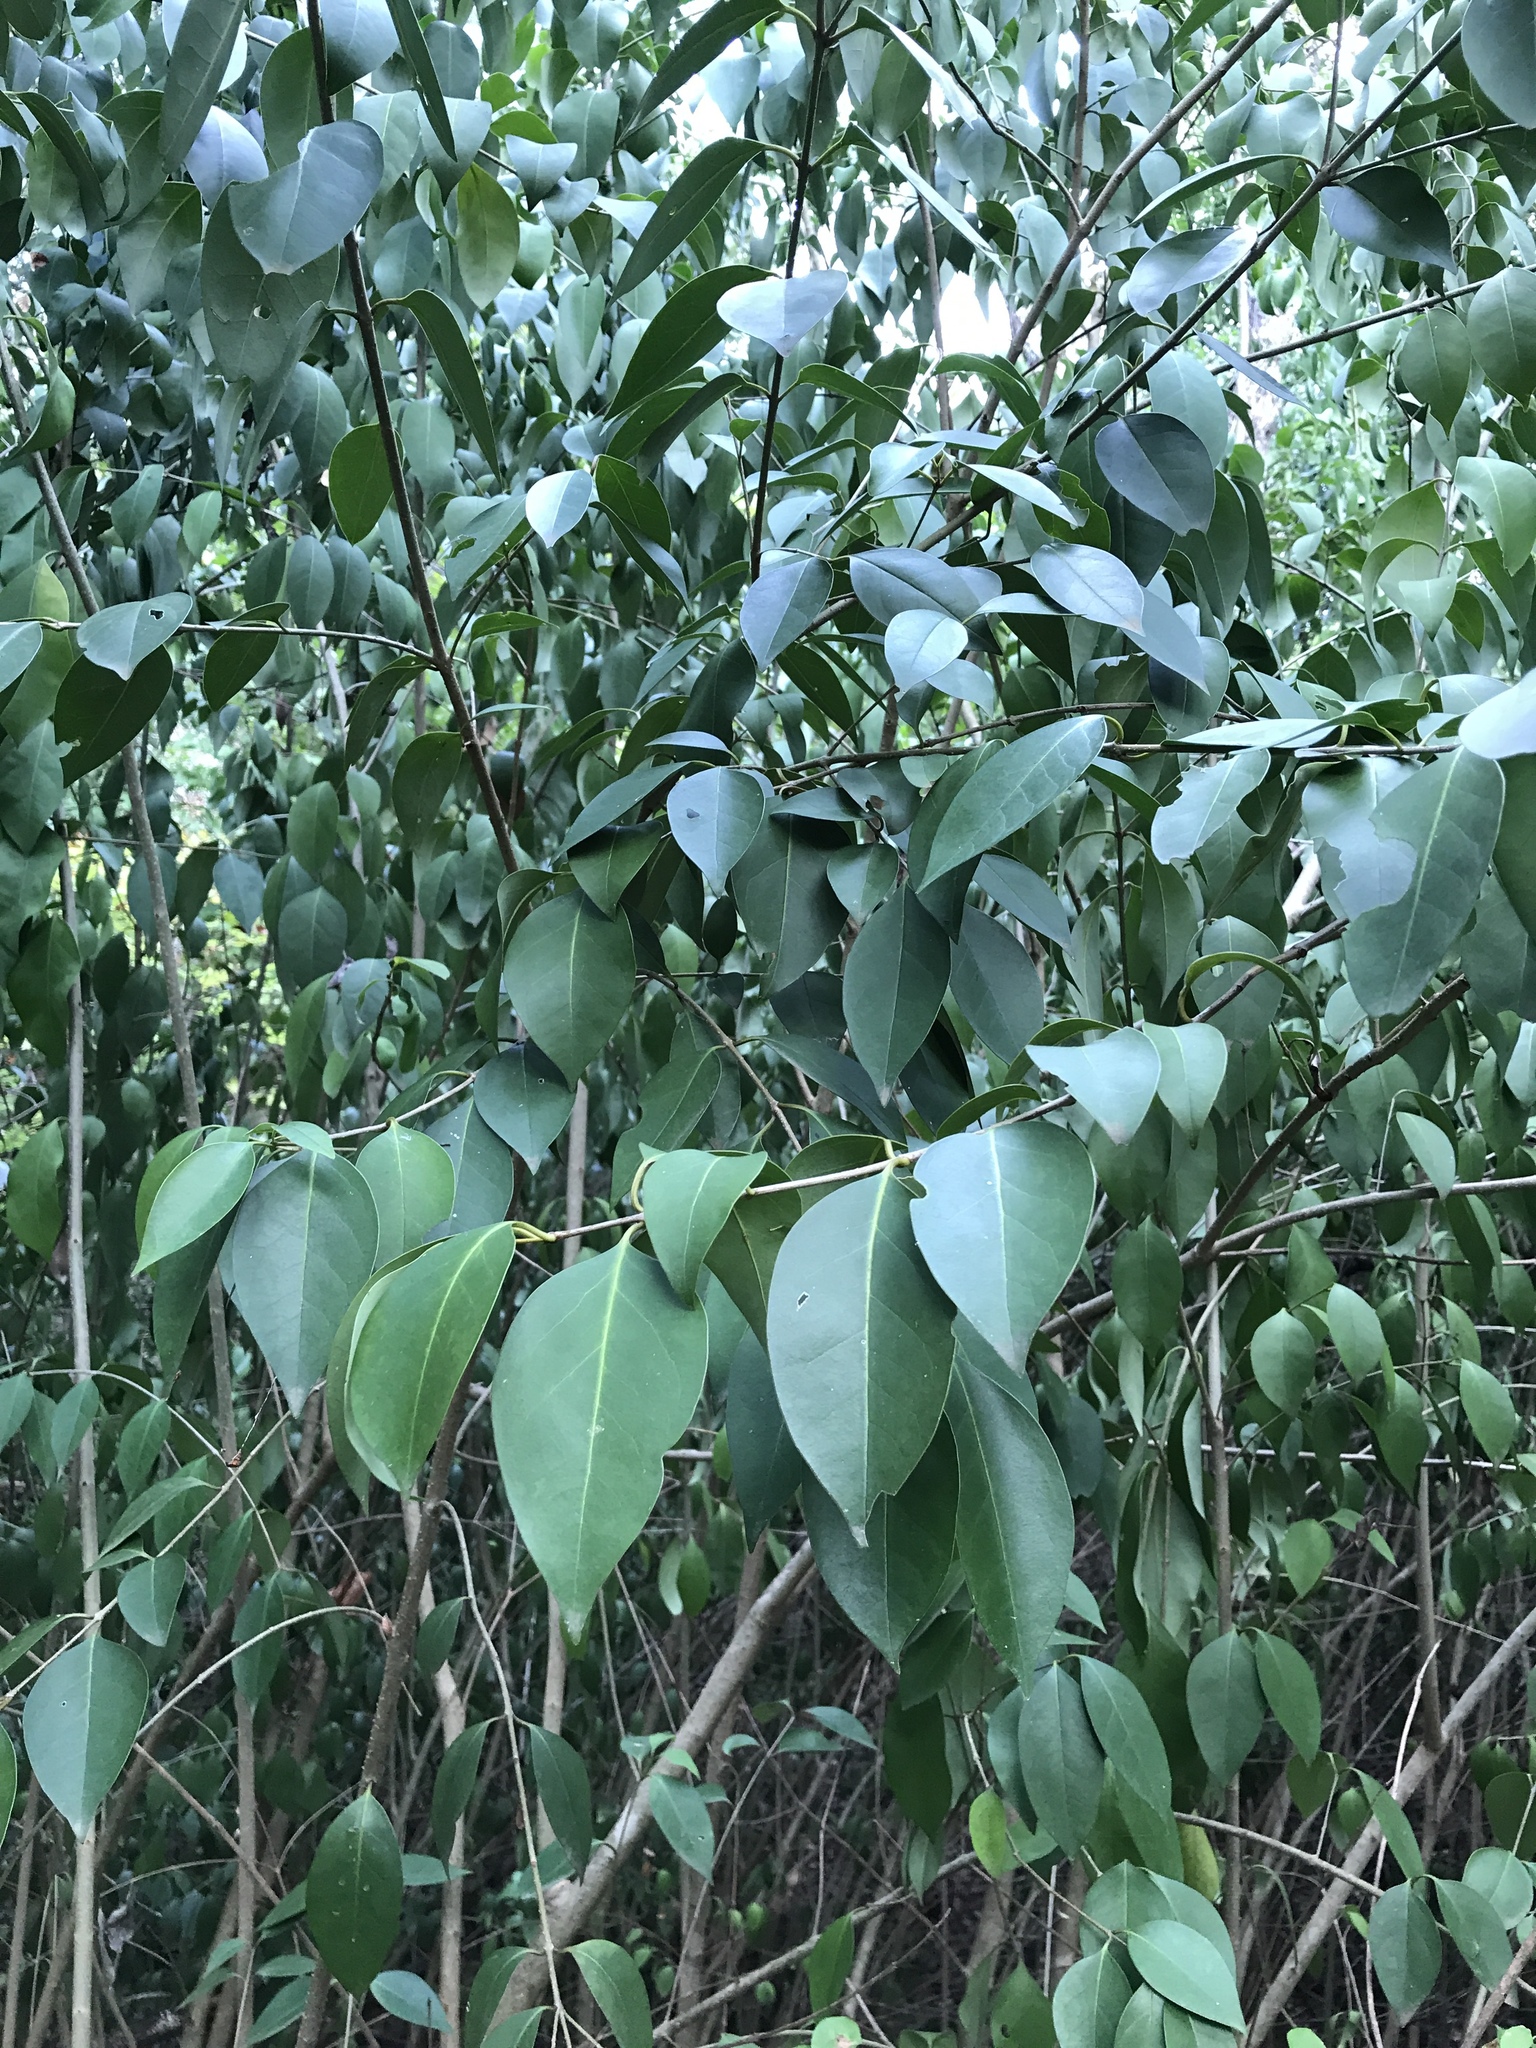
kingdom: Plantae
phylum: Tracheophyta
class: Magnoliopsida
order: Lamiales
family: Oleaceae
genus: Ligustrum
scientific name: Ligustrum lucidum
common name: Glossy privet
